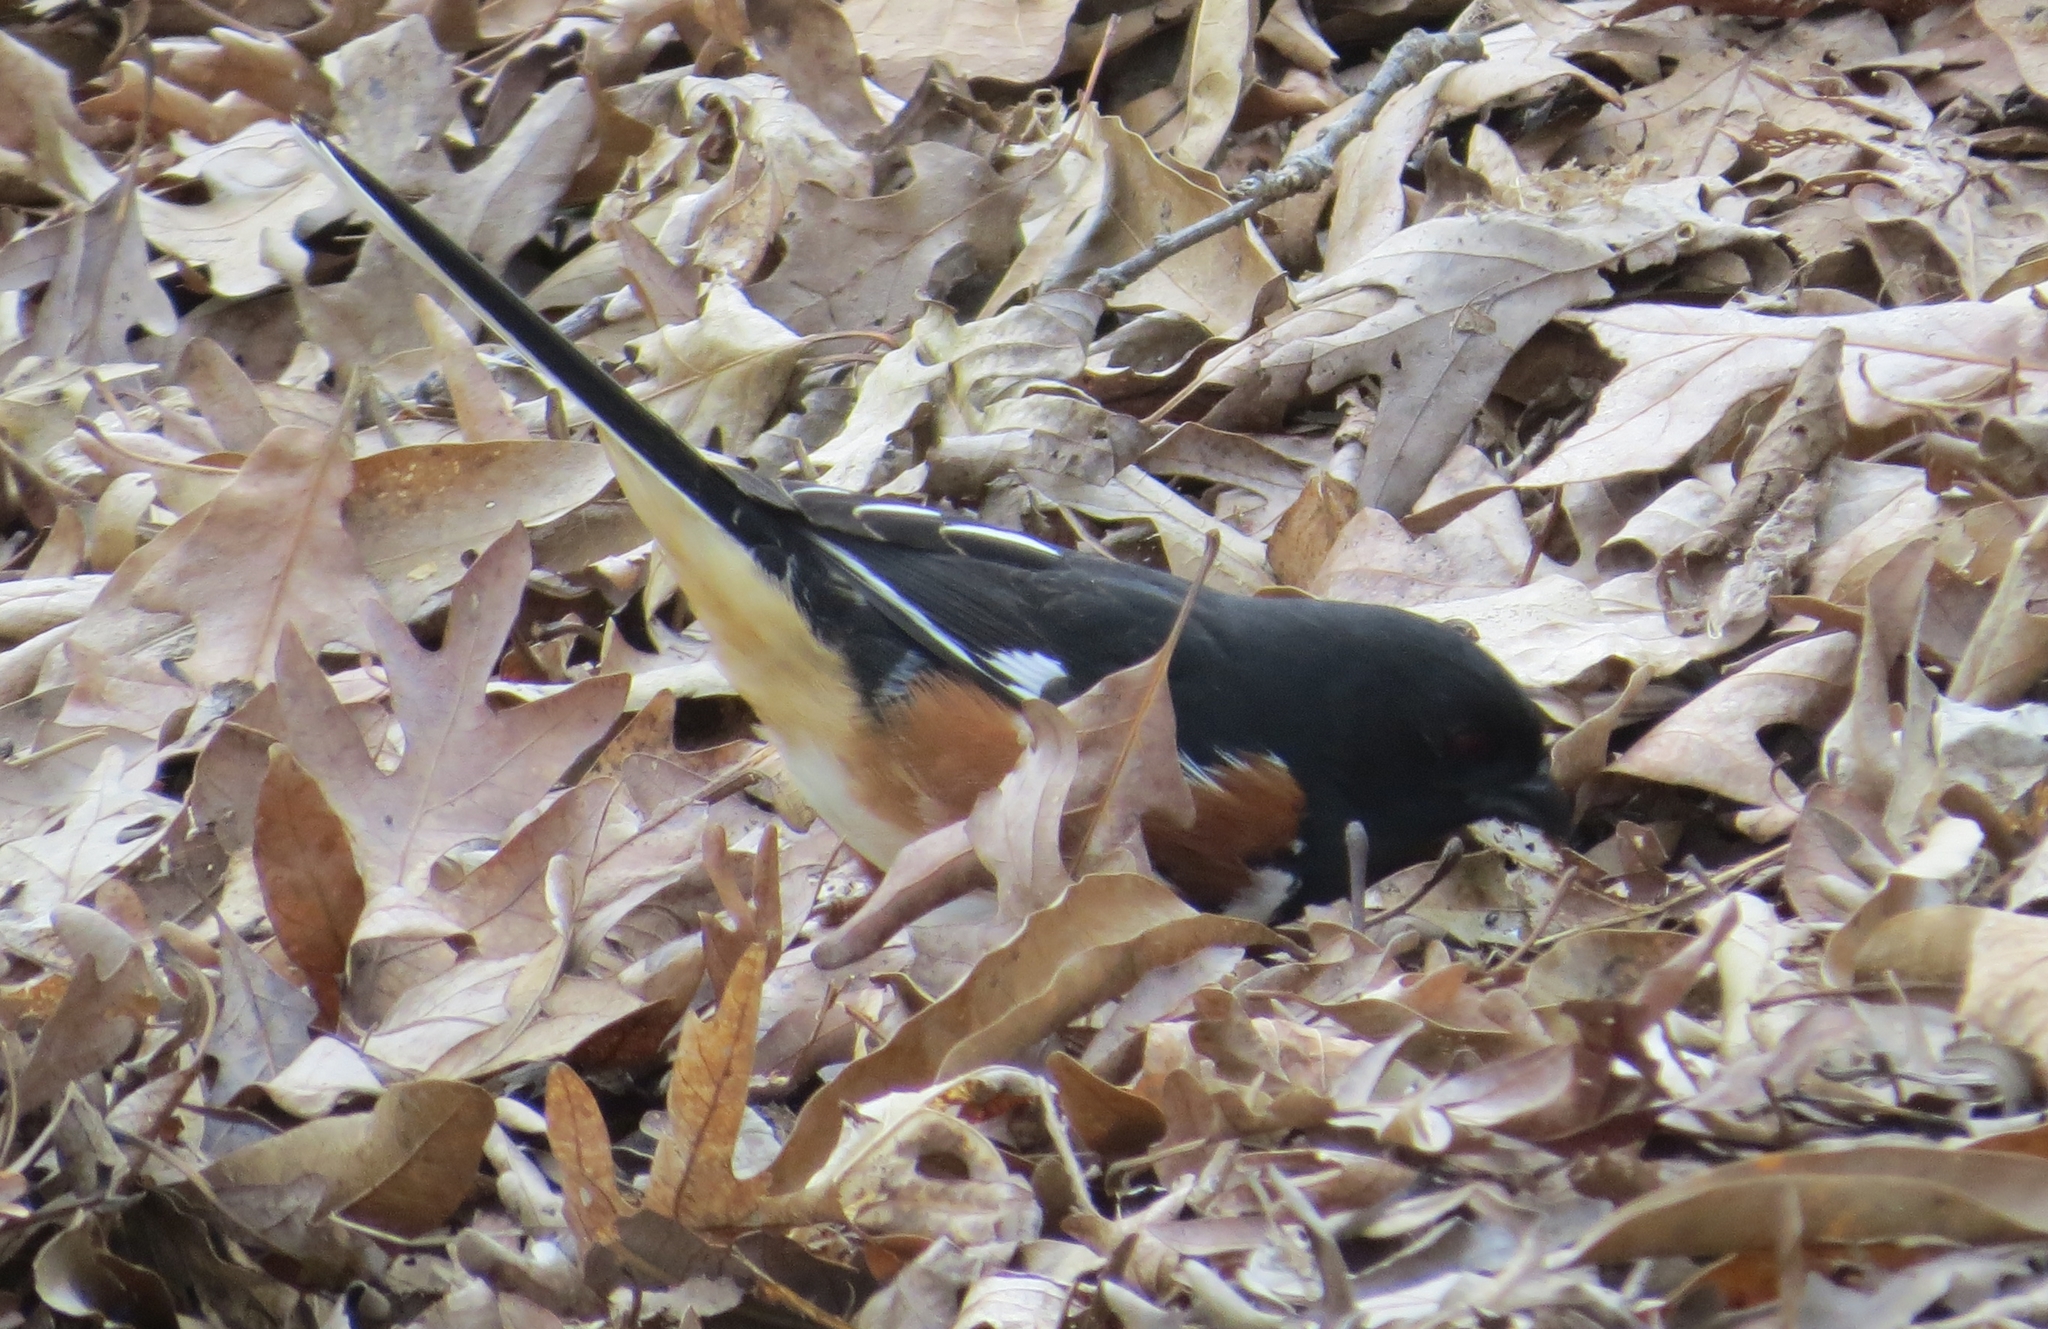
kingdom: Animalia
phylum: Chordata
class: Aves
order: Passeriformes
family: Passerellidae
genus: Pipilo
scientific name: Pipilo erythrophthalmus
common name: Eastern towhee
